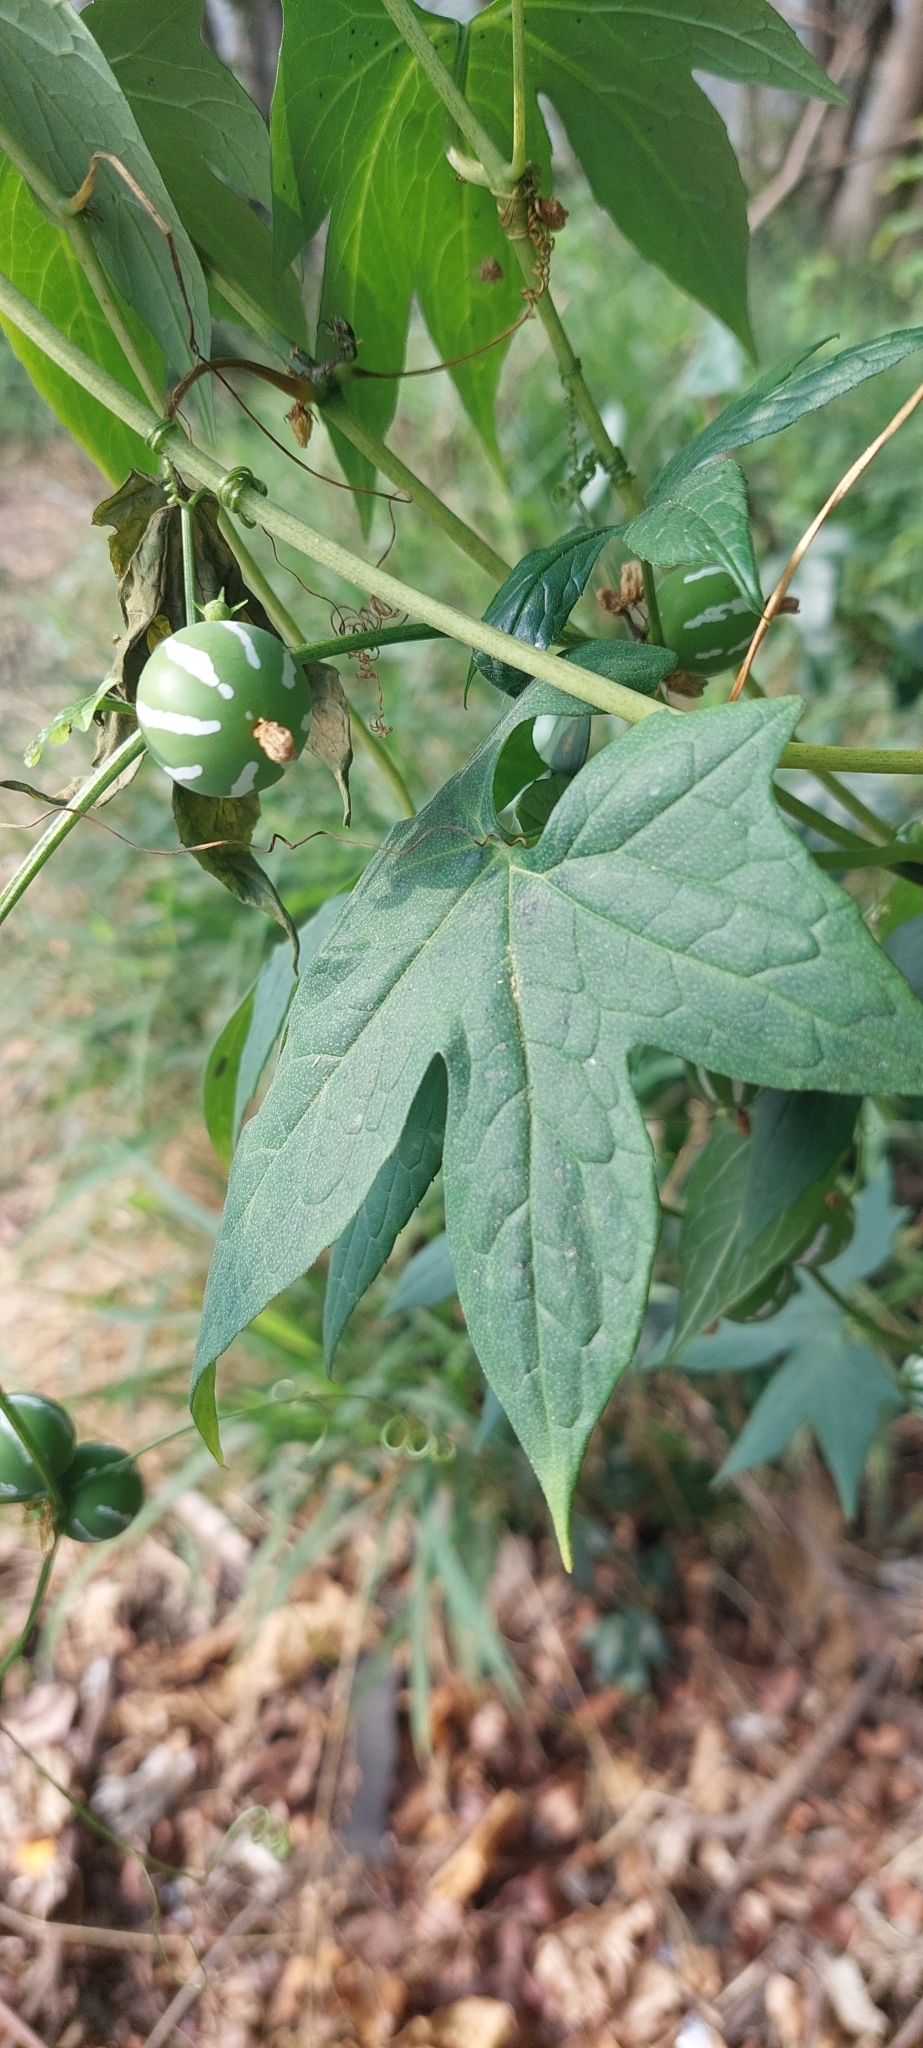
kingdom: Plantae
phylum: Tracheophyta
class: Magnoliopsida
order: Cucurbitales
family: Cucurbitaceae
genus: Diplocyclos
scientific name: Diplocyclos palmatus
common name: Striped-cucumber
